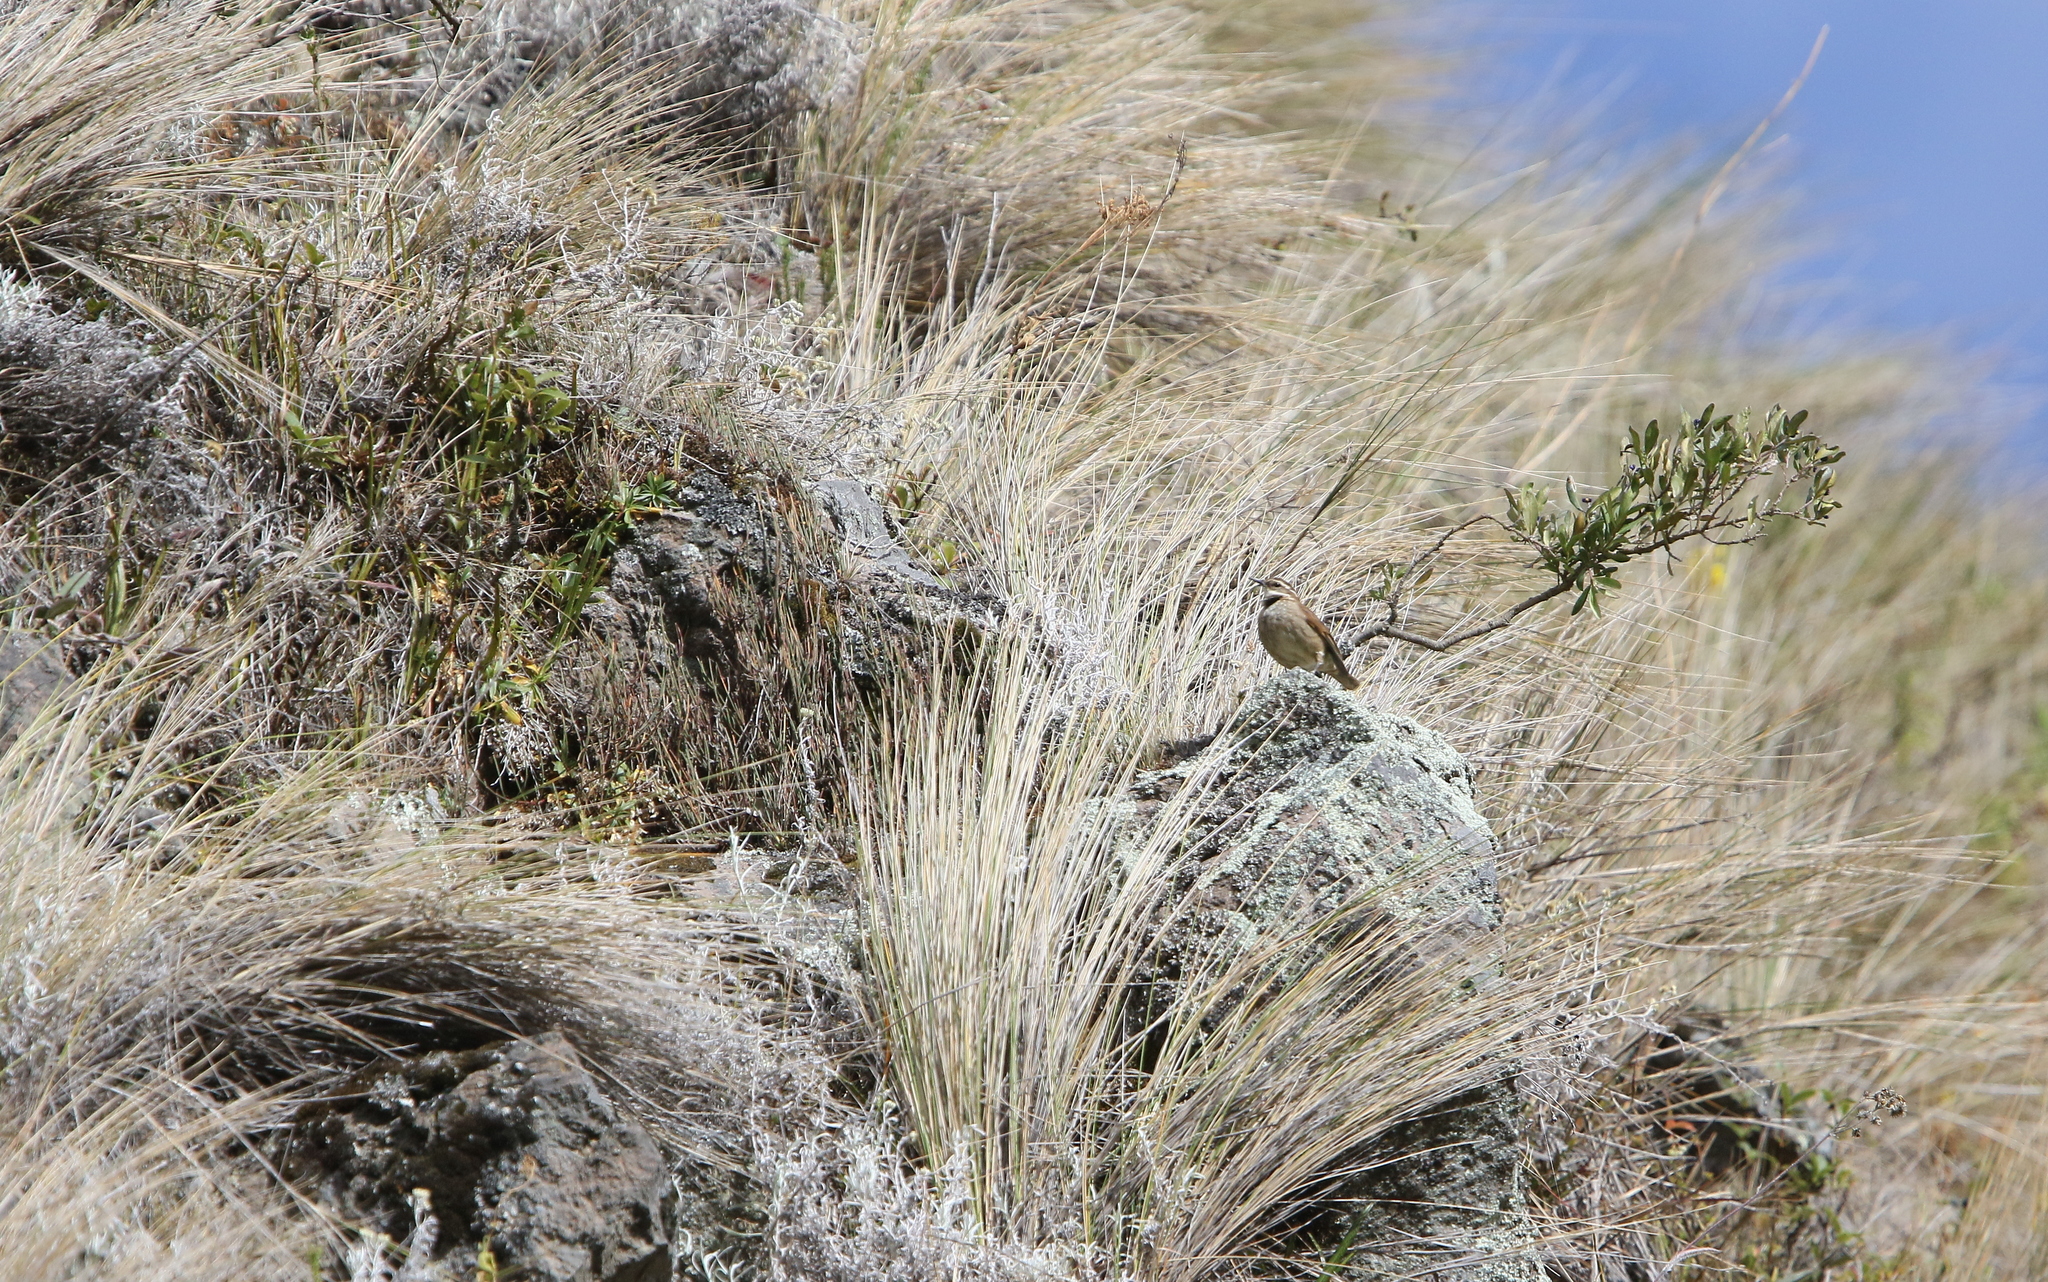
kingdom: Animalia
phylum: Chordata
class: Aves
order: Passeriformes
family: Furnariidae
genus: Cinclodes
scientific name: Cinclodes albidiventris
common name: Chestnut-winged cinclodes
